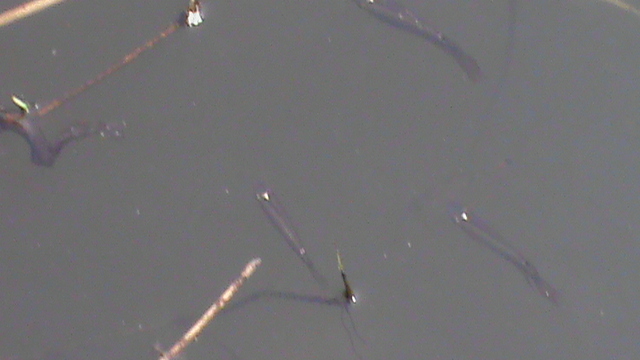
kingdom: Animalia
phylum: Chordata
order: Cyprinodontiformes
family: Aplocheilidae
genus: Aplocheilus
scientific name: Aplocheilus lineatus
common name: Striped panchax
